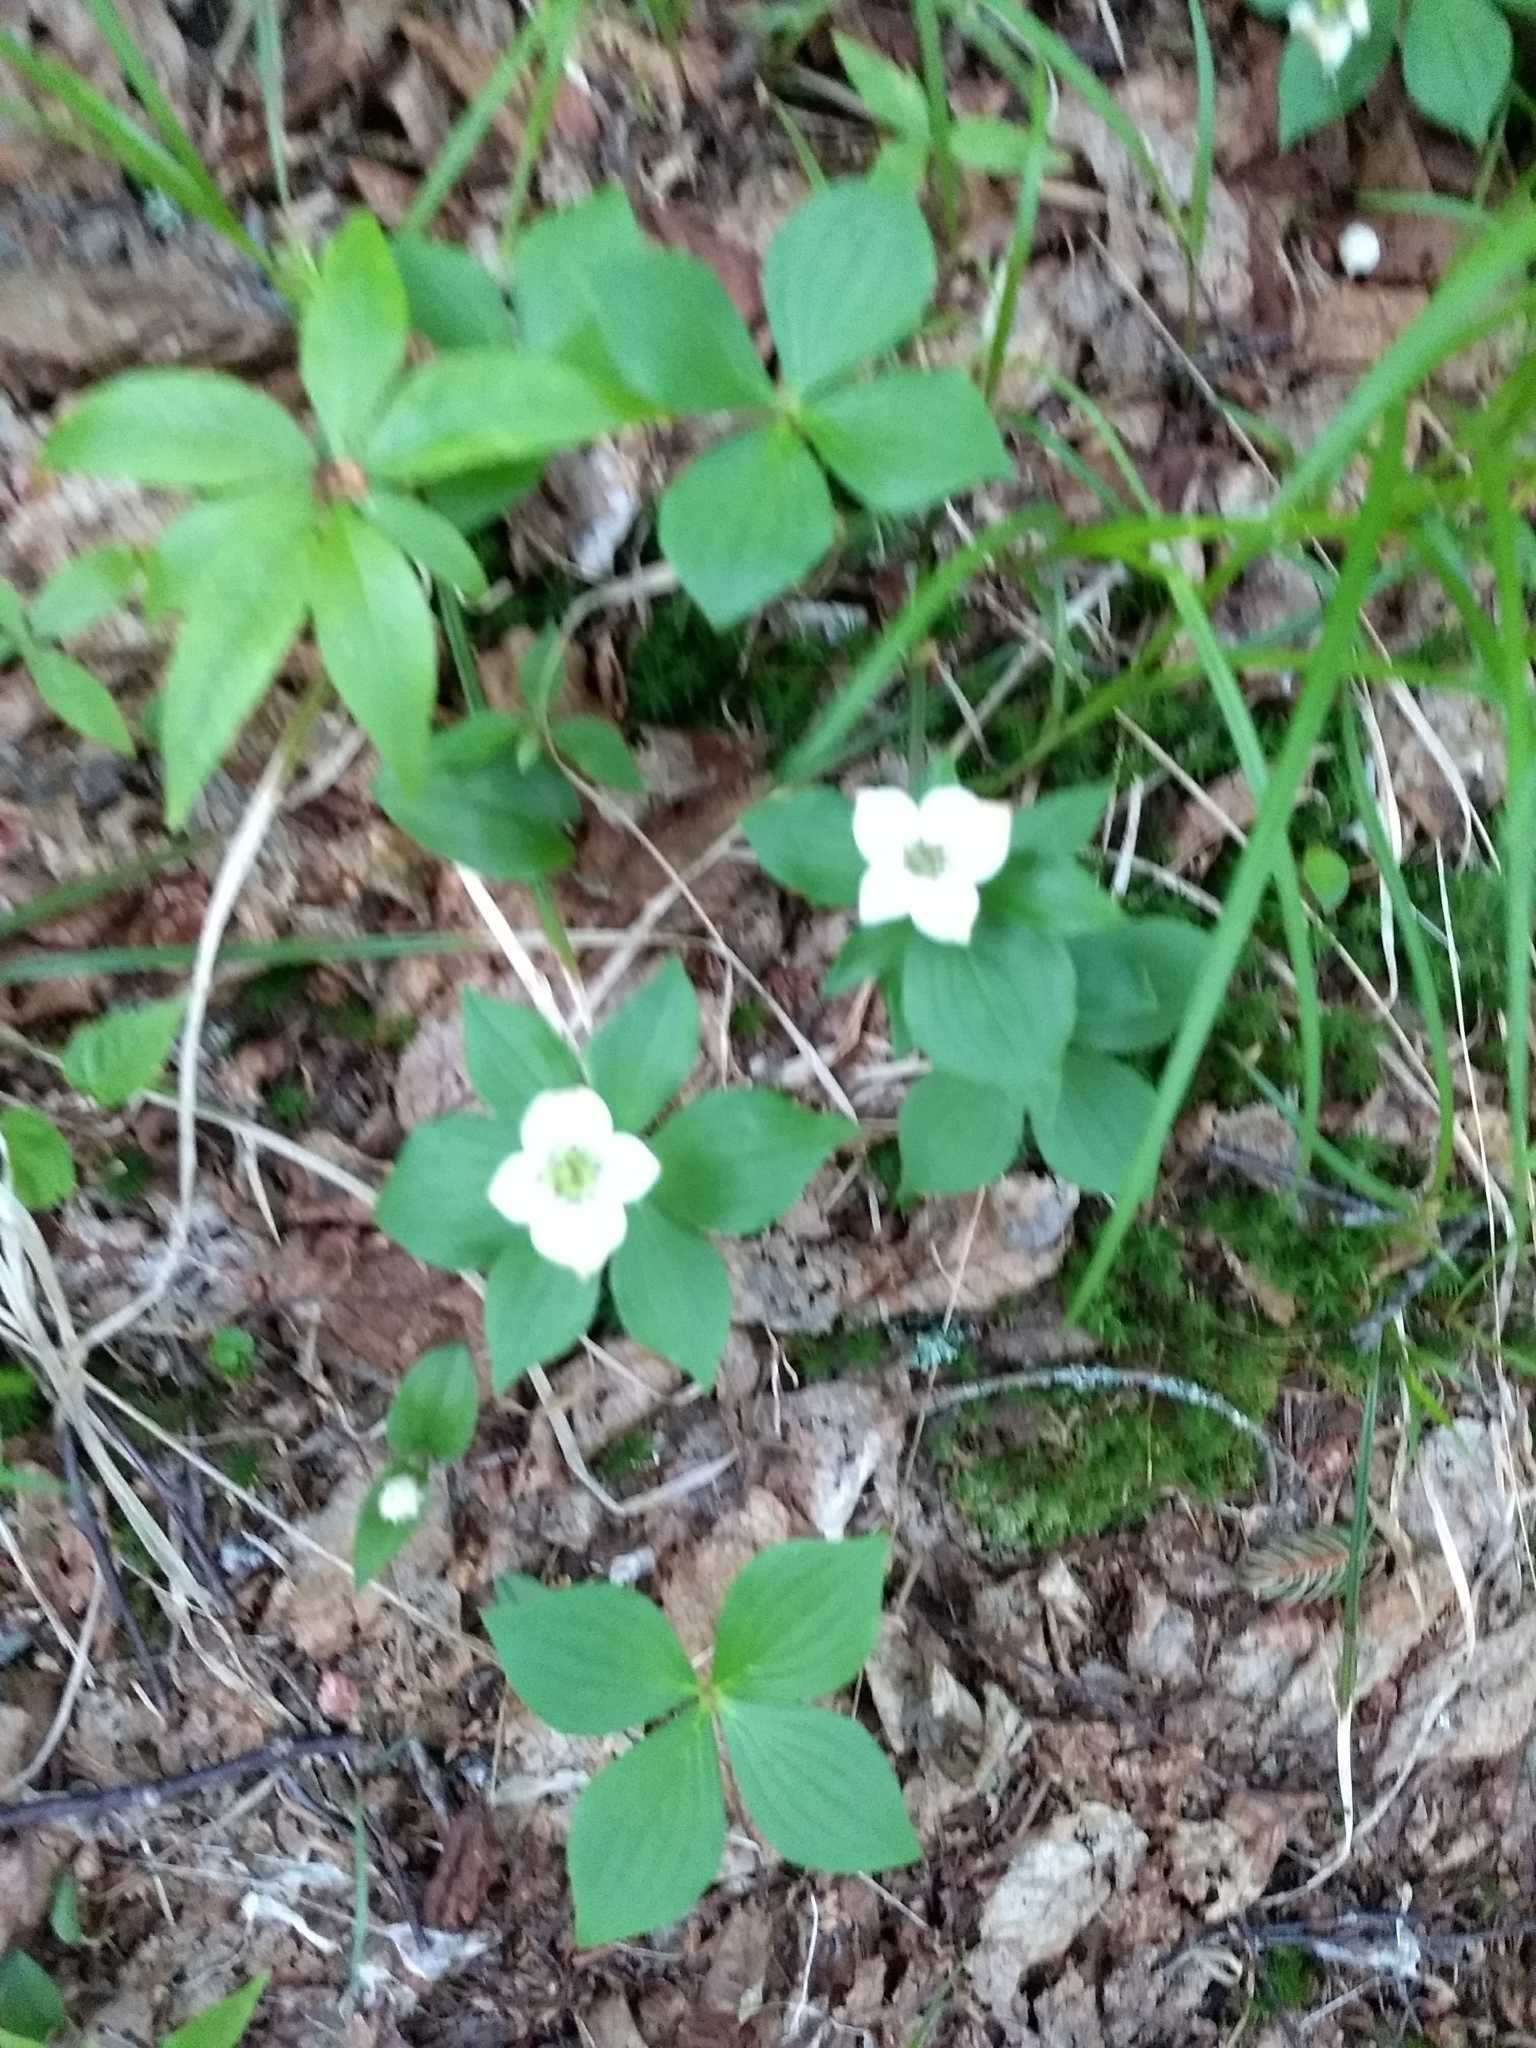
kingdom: Plantae
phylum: Tracheophyta
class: Magnoliopsida
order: Cornales
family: Cornaceae
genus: Cornus
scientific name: Cornus canadensis
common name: Creeping dogwood
